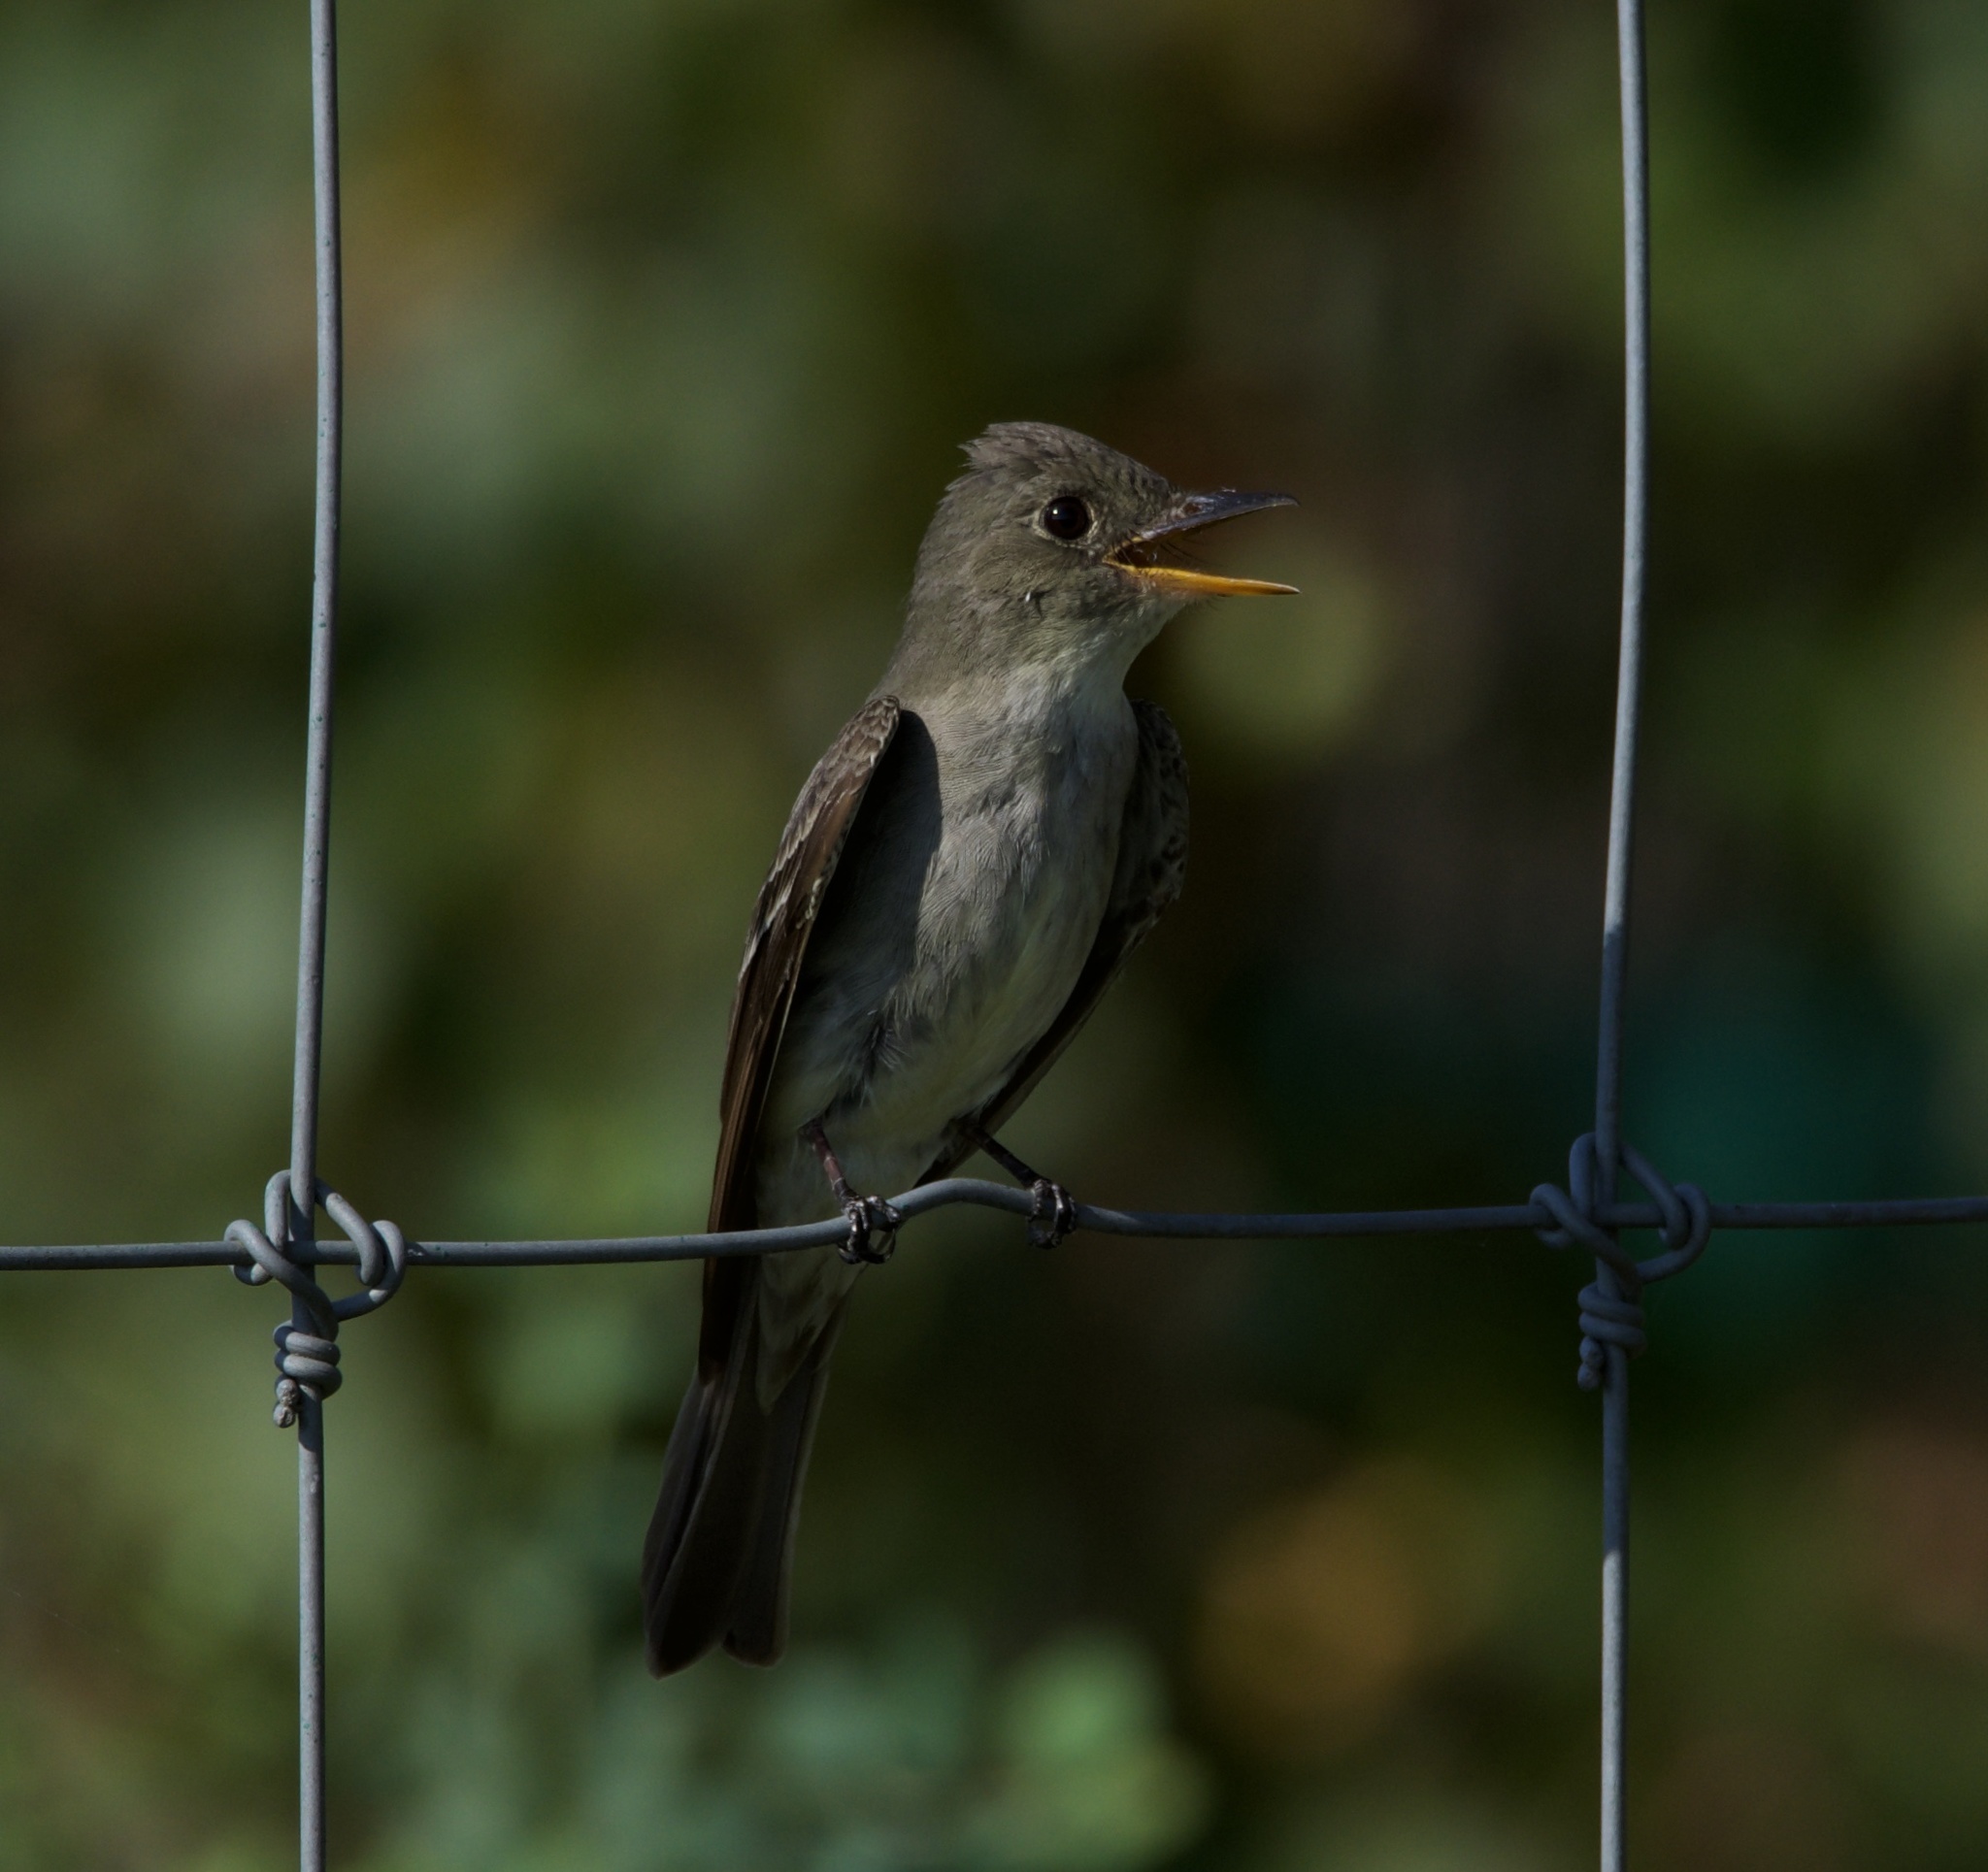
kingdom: Animalia
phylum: Chordata
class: Aves
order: Passeriformes
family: Tyrannidae
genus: Contopus
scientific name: Contopus virens
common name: Eastern wood-pewee
